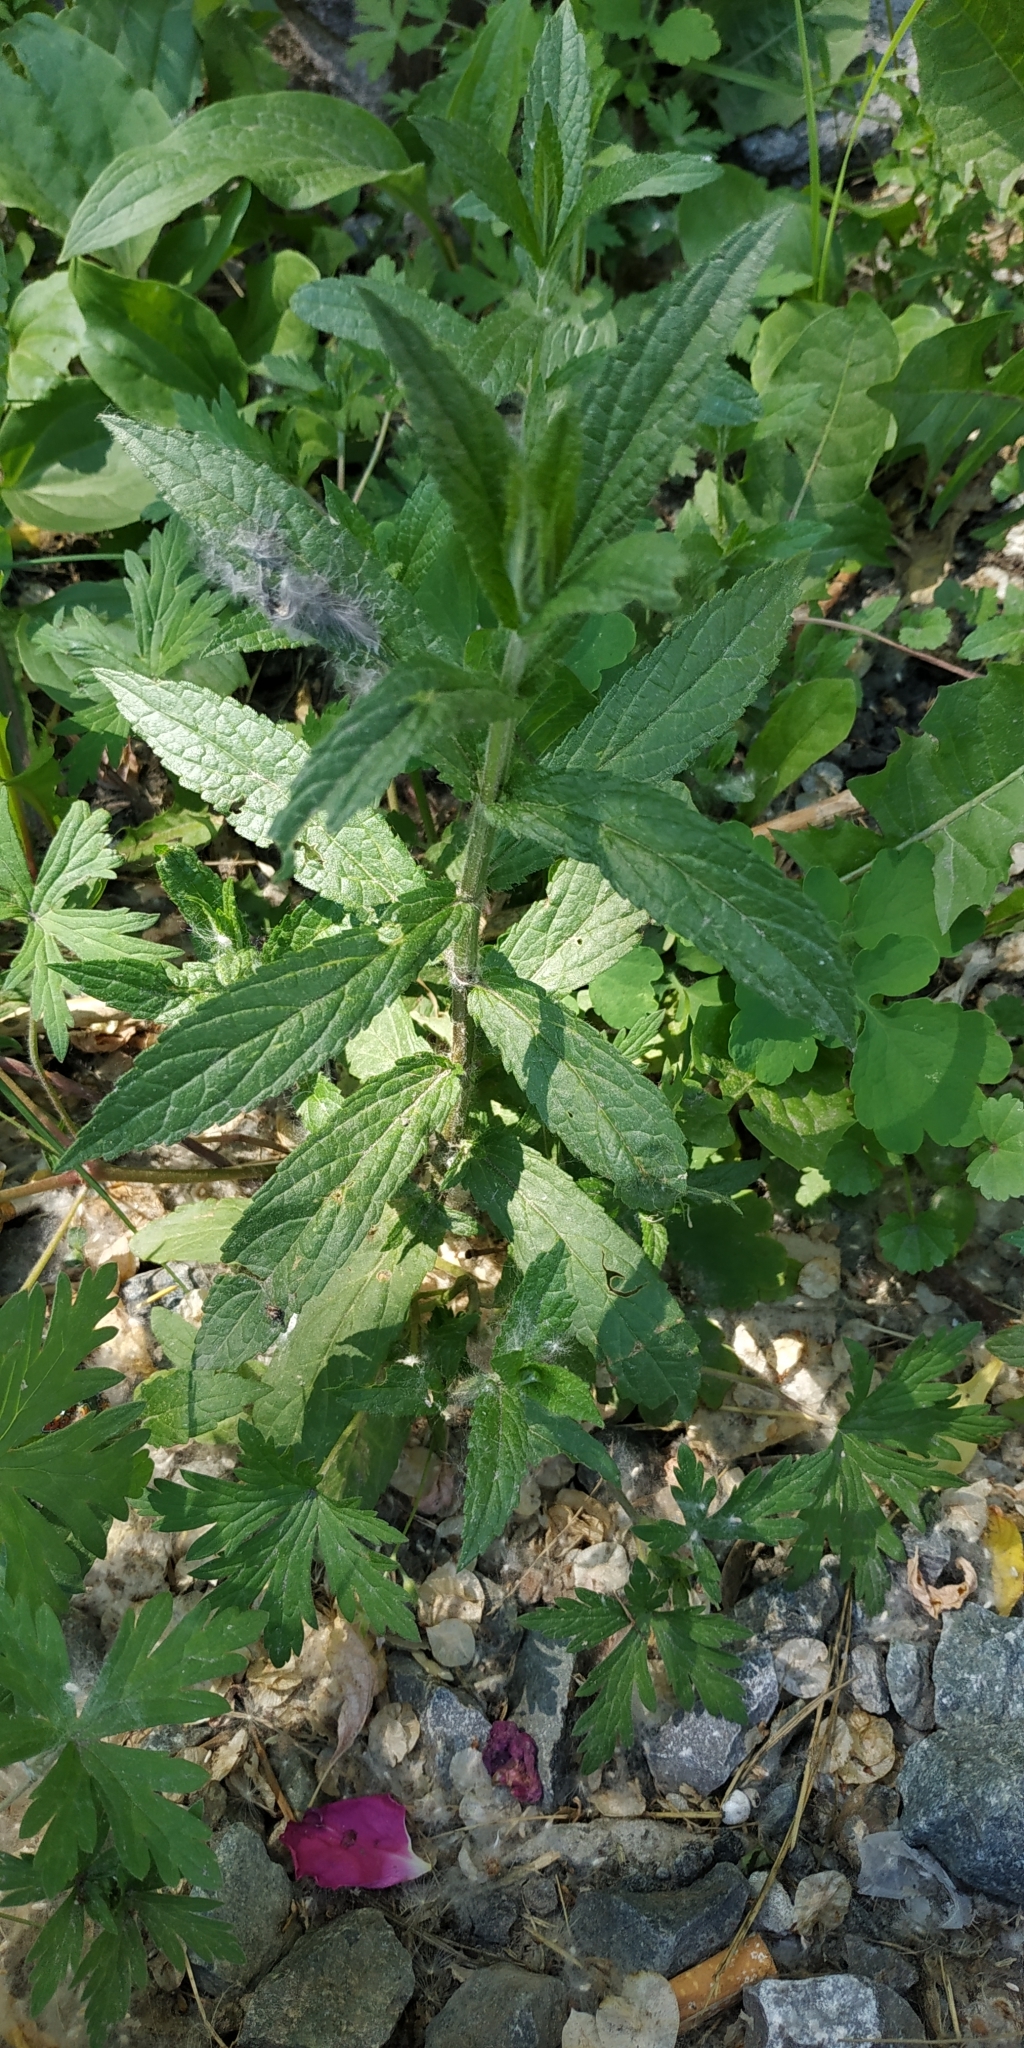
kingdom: Plantae
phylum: Tracheophyta
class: Magnoliopsida
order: Lamiales
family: Lamiaceae
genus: Stachys
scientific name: Stachys palustris
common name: Marsh woundwort
